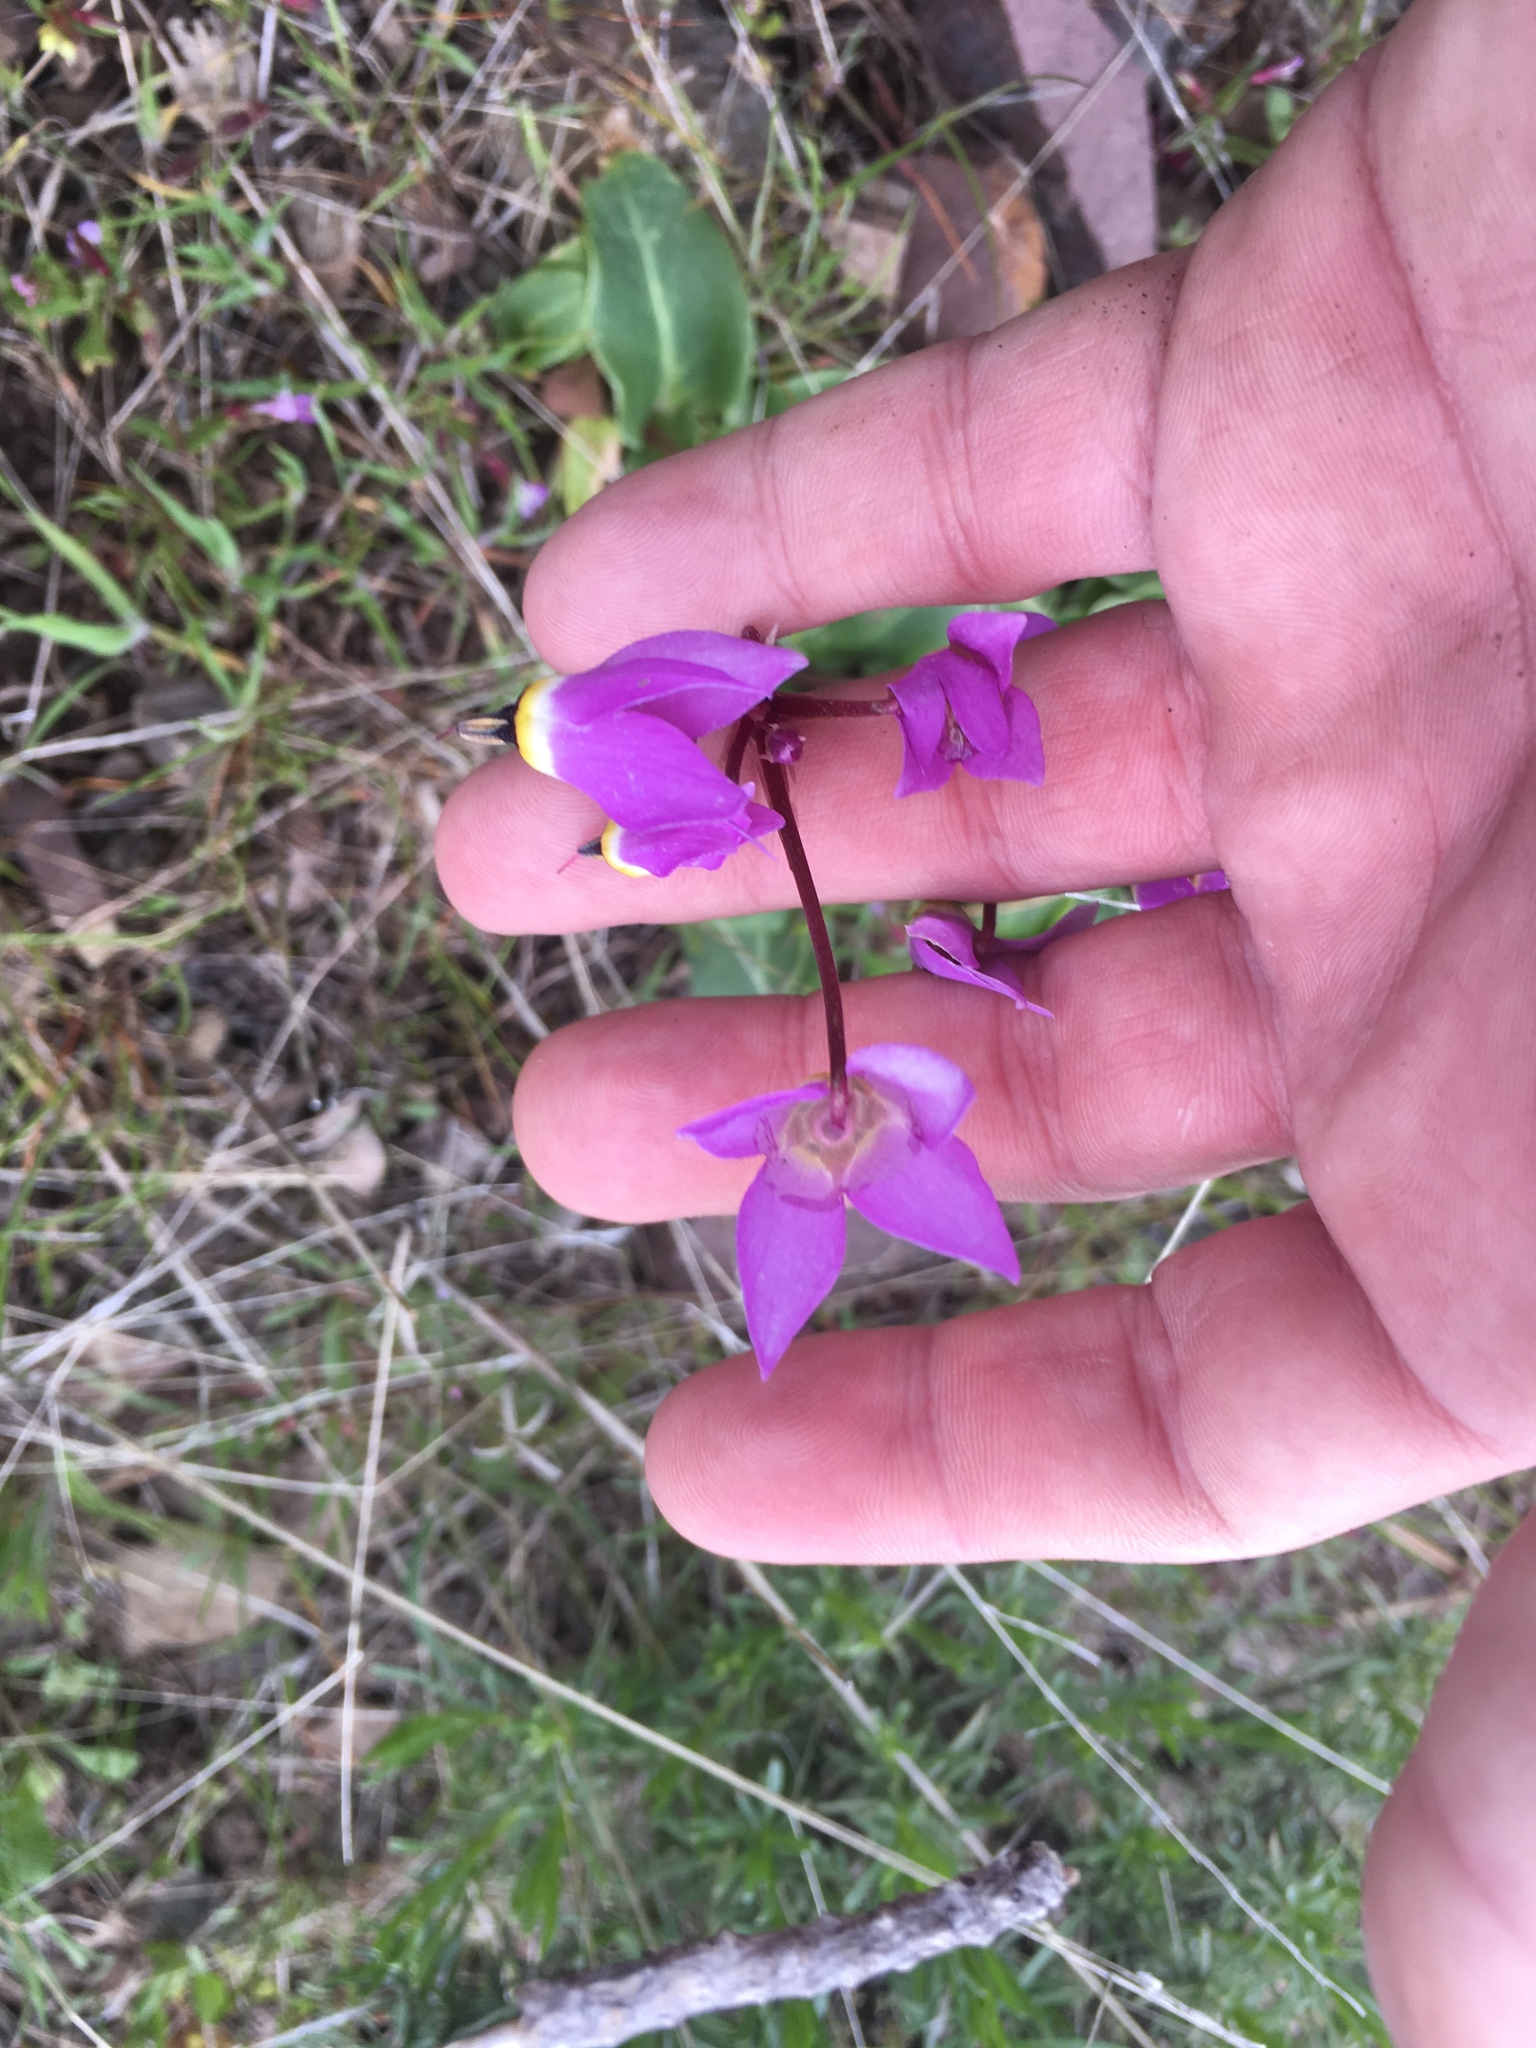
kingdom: Plantae
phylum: Tracheophyta
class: Magnoliopsida
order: Ericales
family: Primulaceae
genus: Dodecatheon
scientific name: Dodecatheon hendersonii
